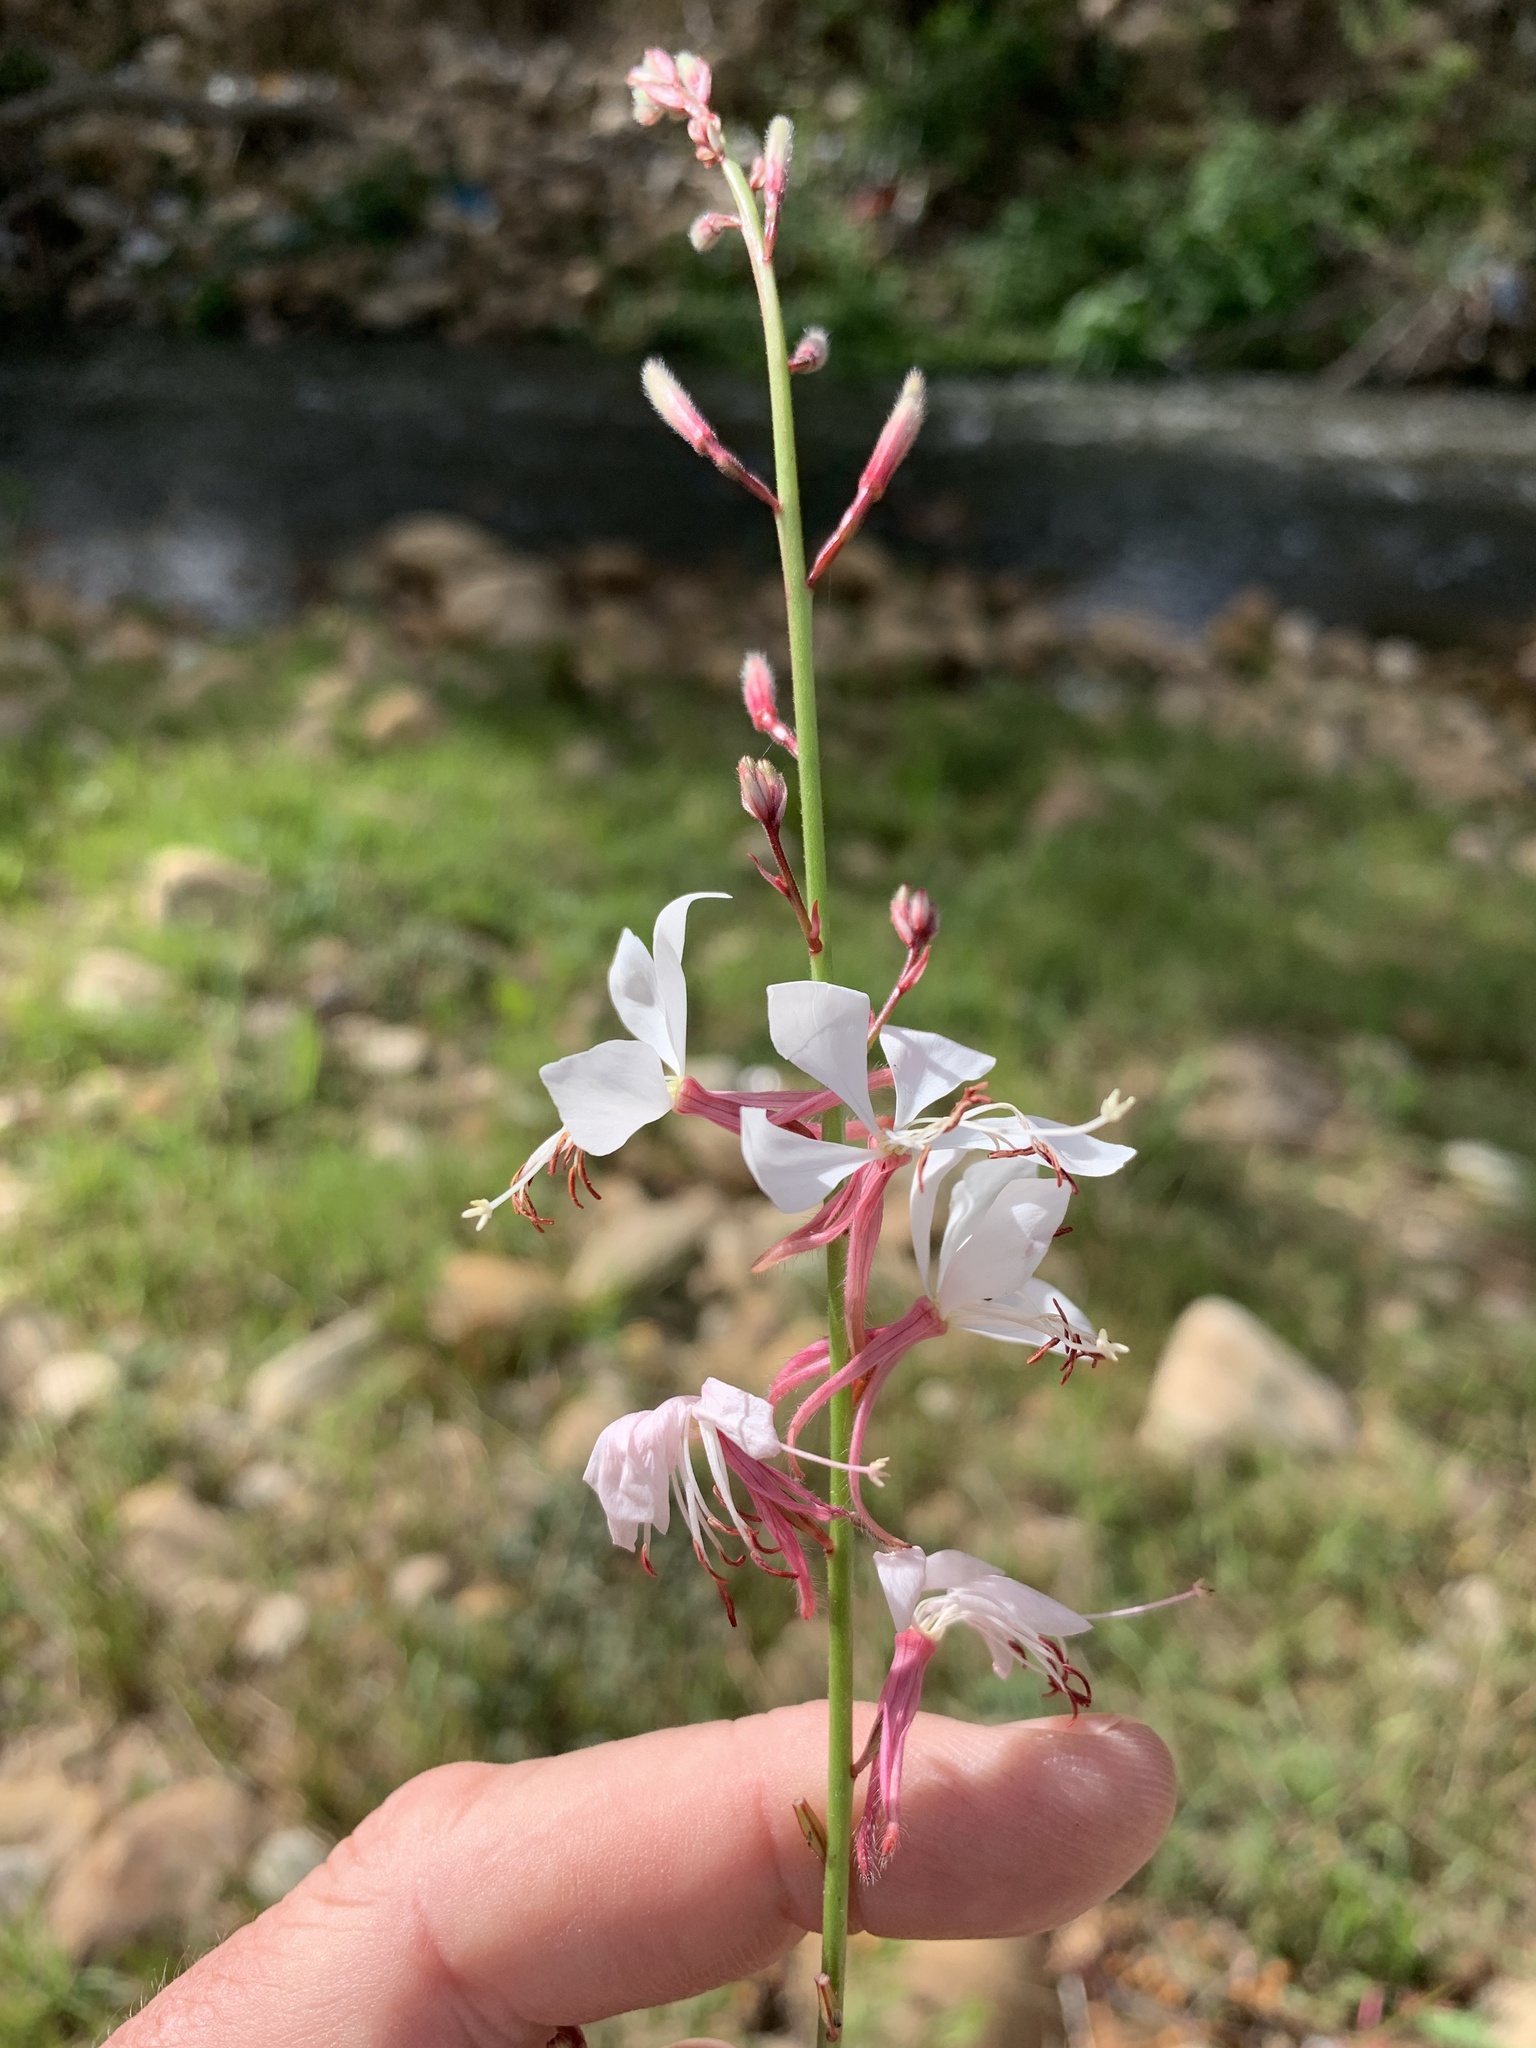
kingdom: Plantae
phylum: Tracheophyta
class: Magnoliopsida
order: Myrtales
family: Onagraceae
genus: Oenothera
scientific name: Oenothera lindheimeri
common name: Lindheimer's beeblossom
